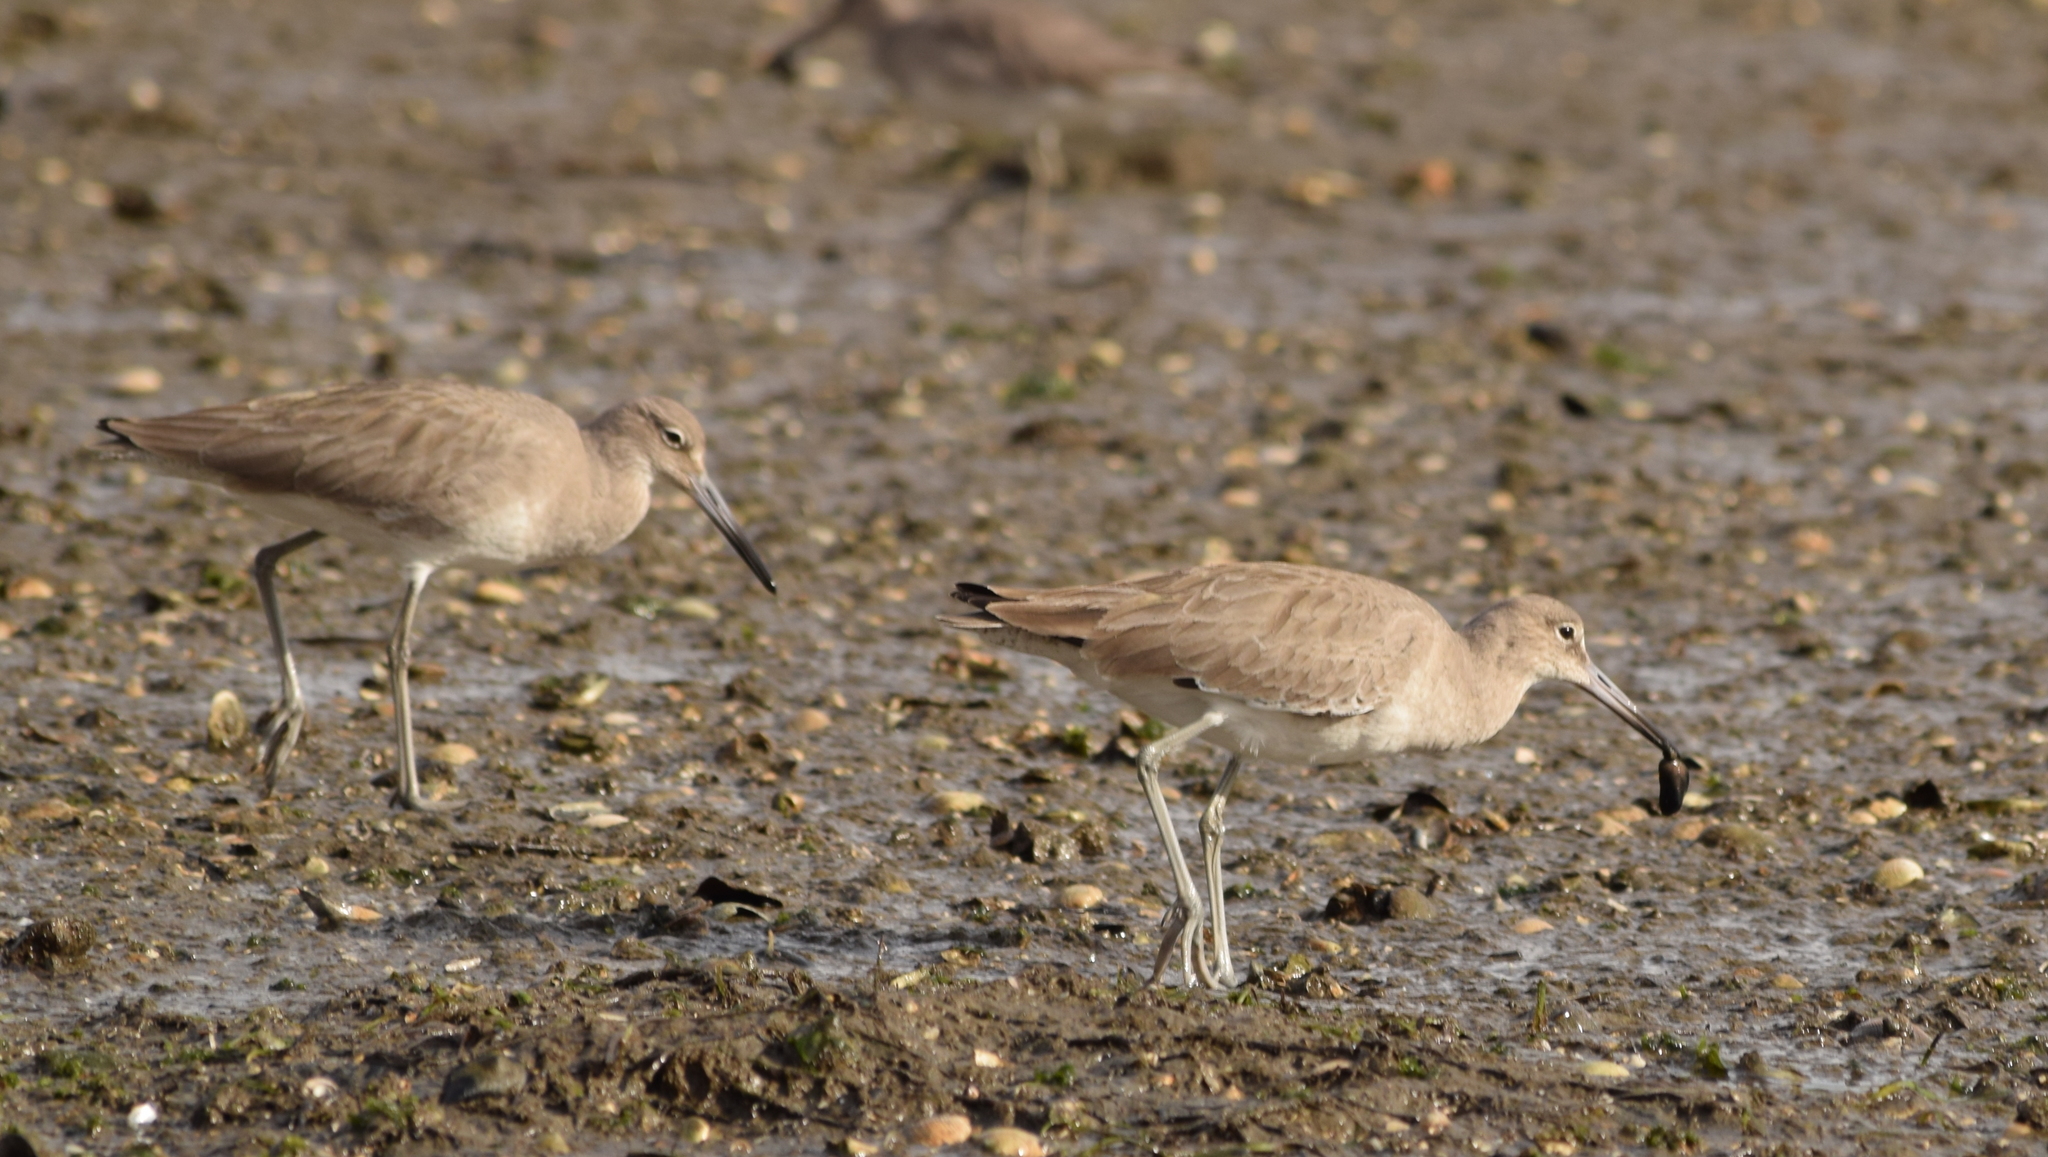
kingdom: Animalia
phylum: Chordata
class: Aves
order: Charadriiformes
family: Scolopacidae
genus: Tringa
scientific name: Tringa semipalmata
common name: Willet
